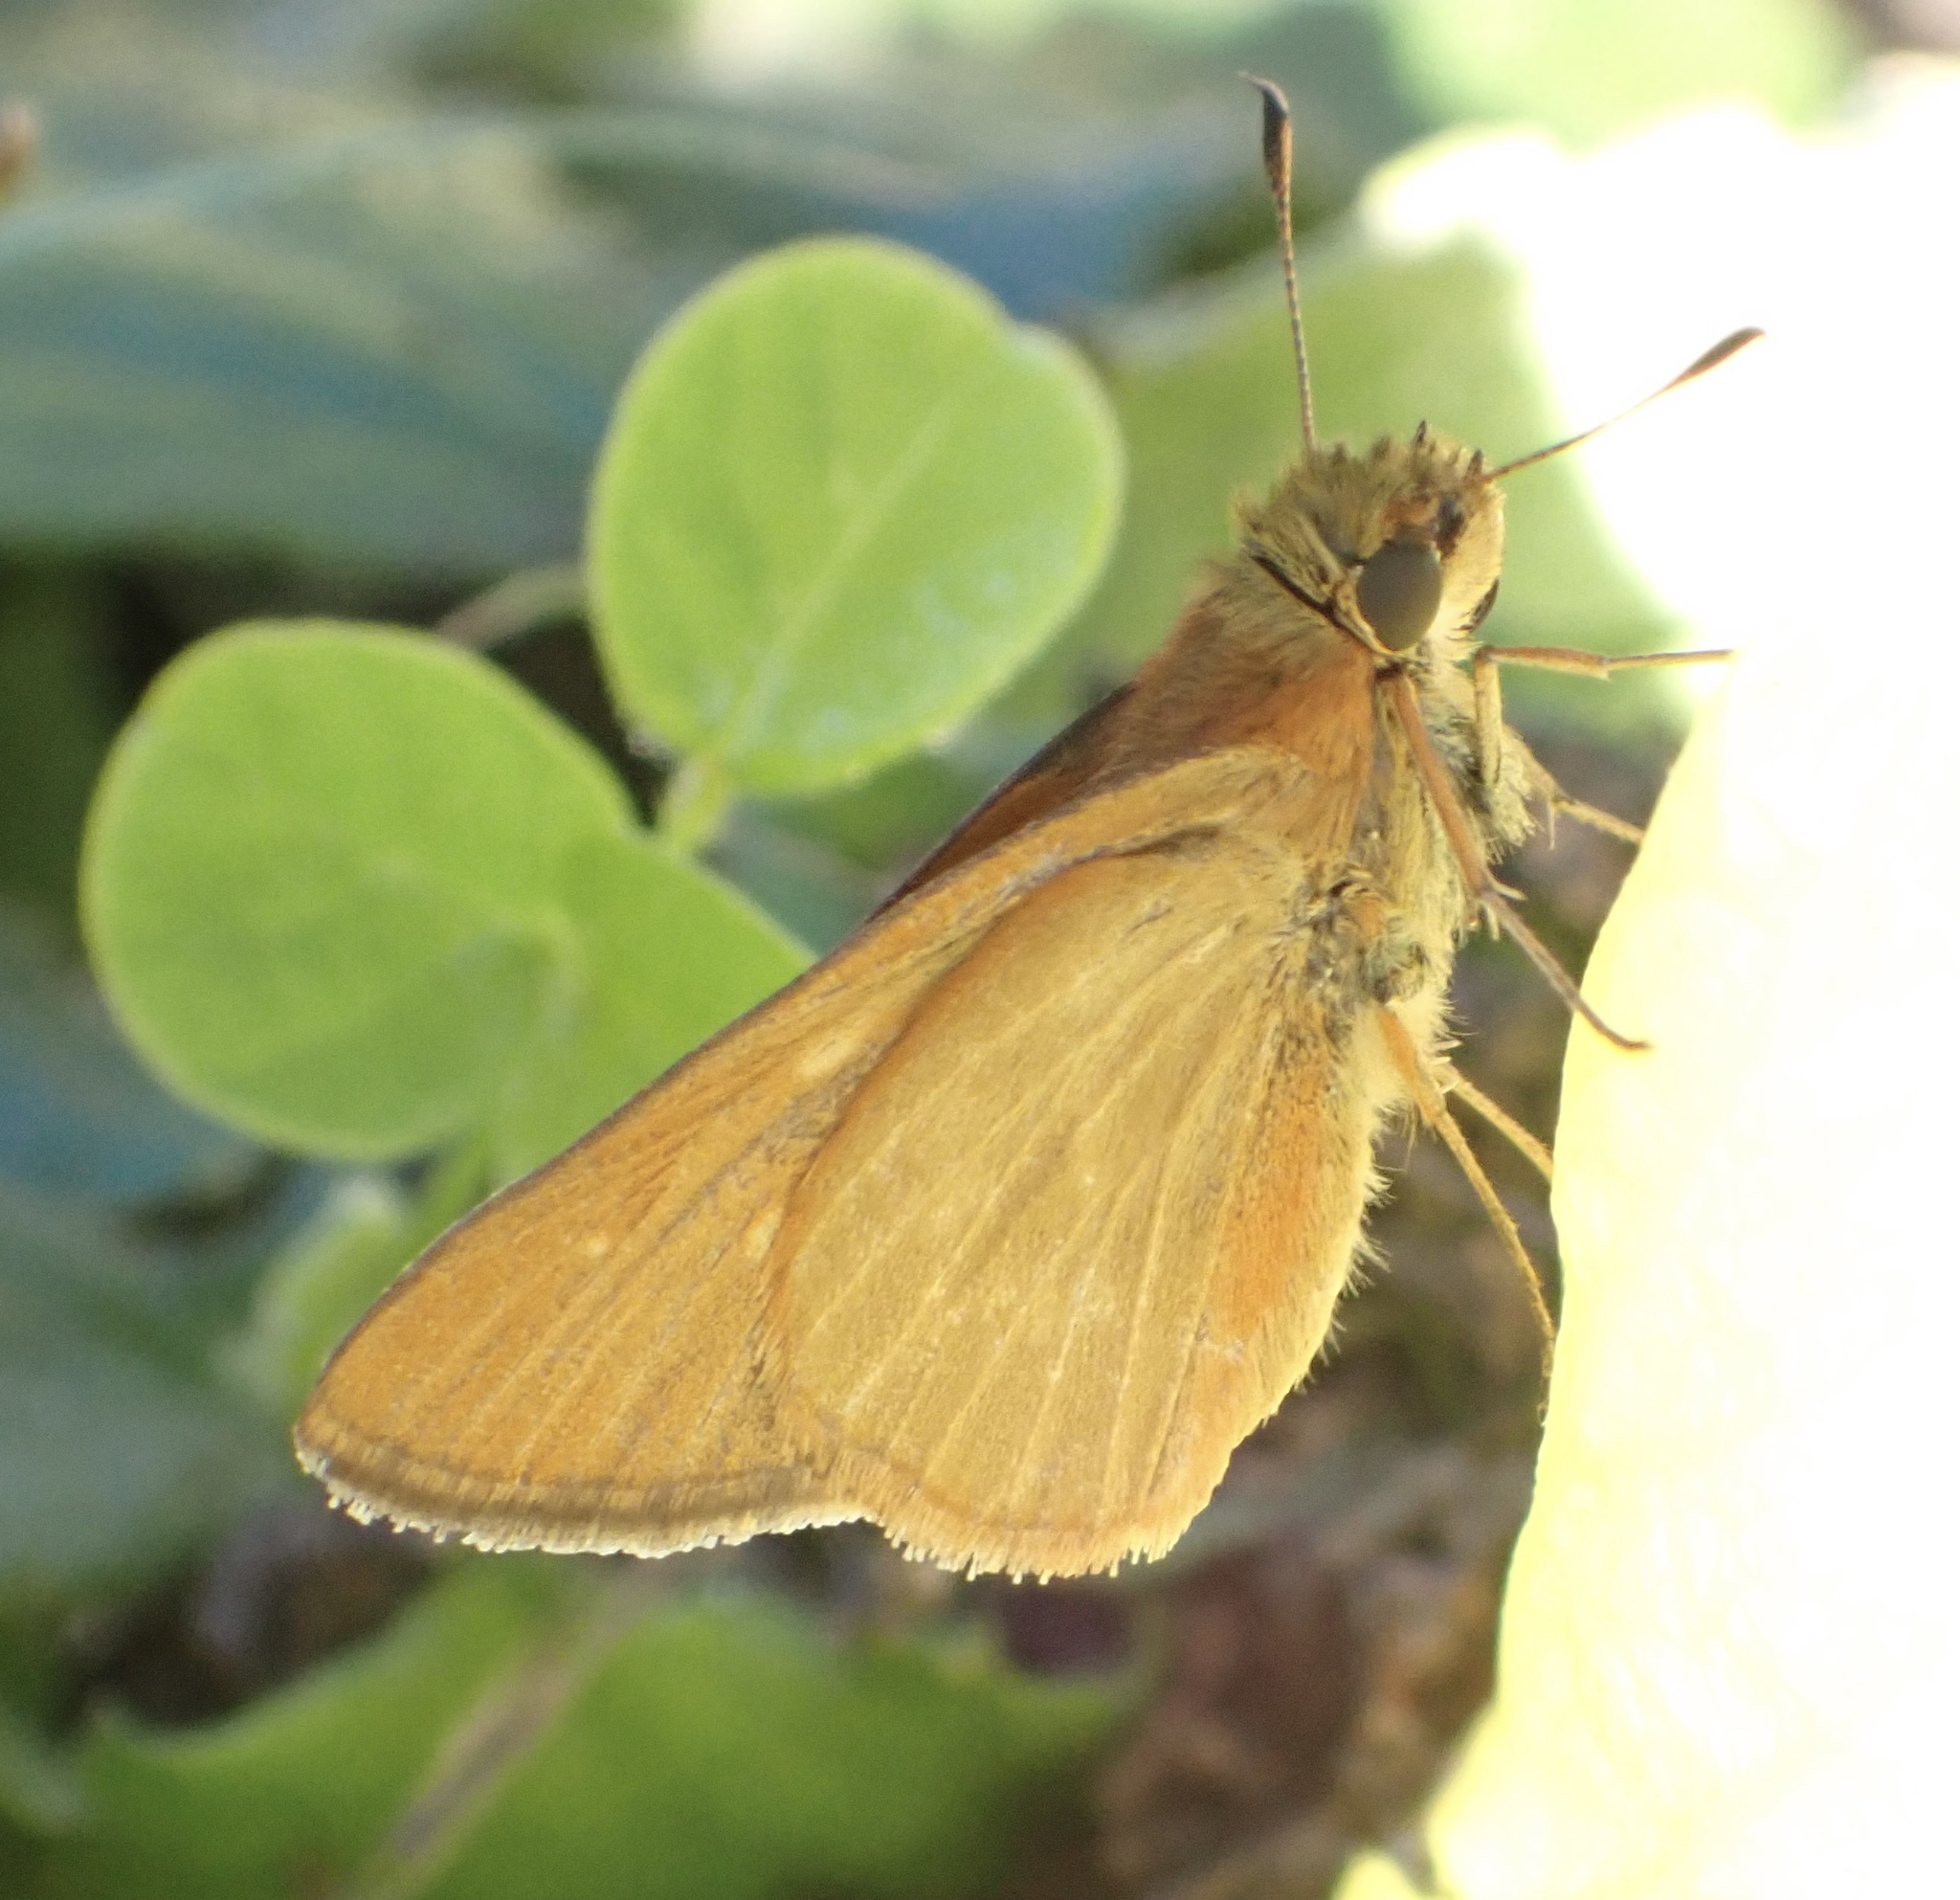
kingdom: Animalia
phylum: Arthropoda
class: Insecta
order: Lepidoptera
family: Hesperiidae
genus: Borbo
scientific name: Borbo micans
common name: Marsh swift
